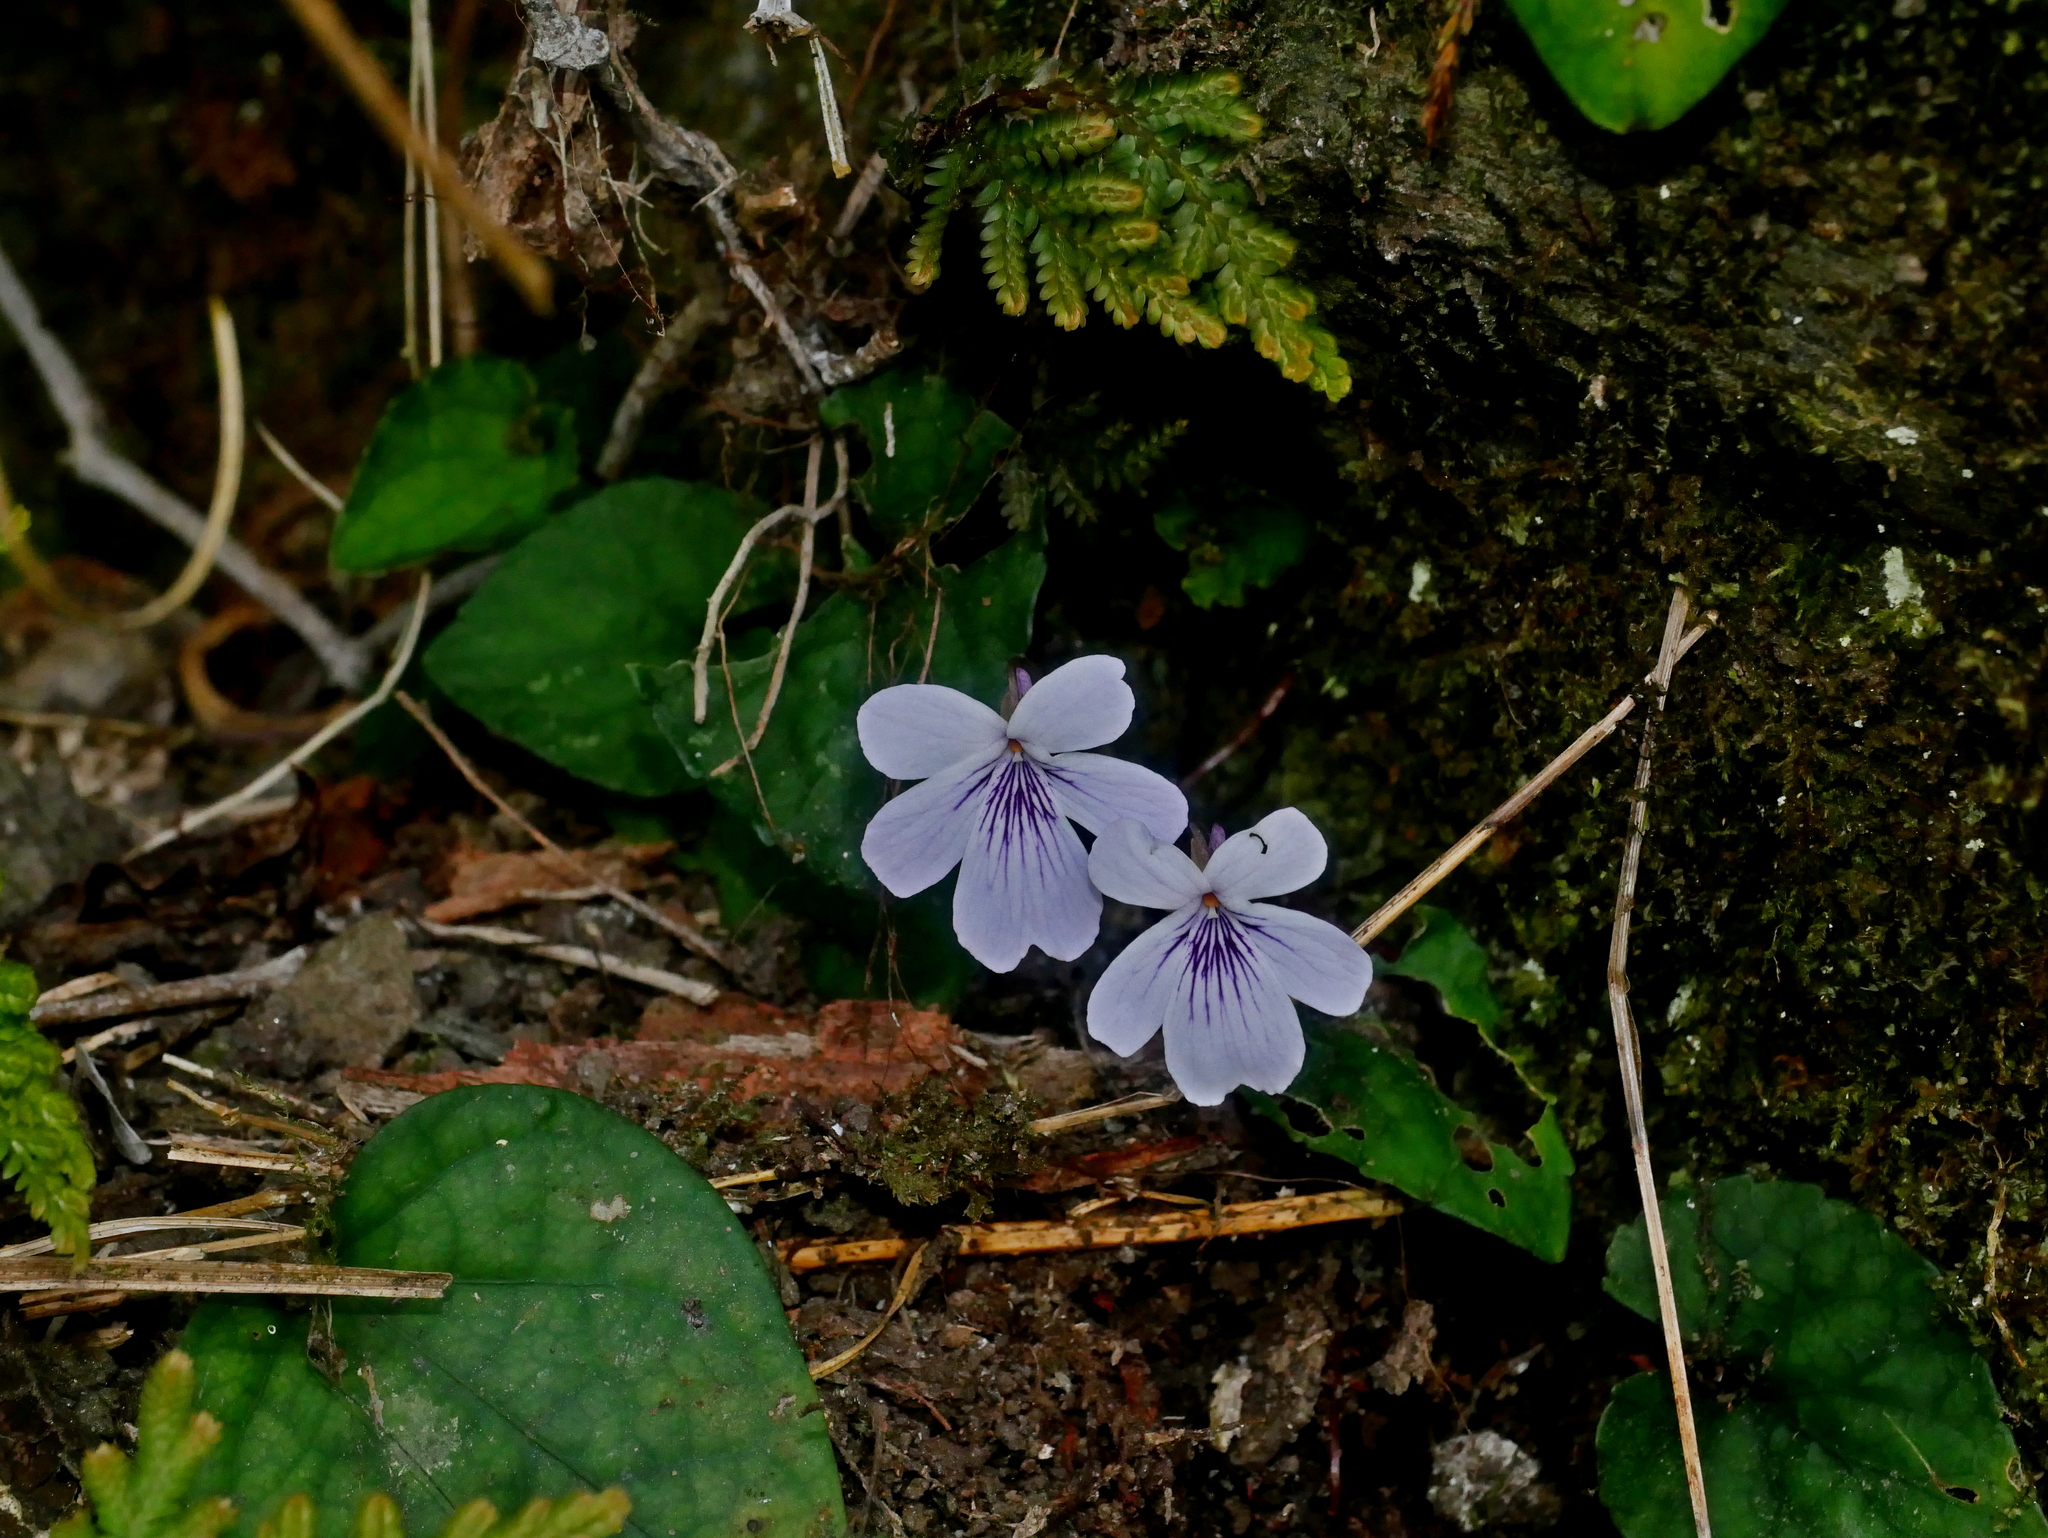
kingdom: Plantae
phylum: Tracheophyta
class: Magnoliopsida
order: Malpighiales
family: Violaceae
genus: Viola
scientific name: Viola formosana
